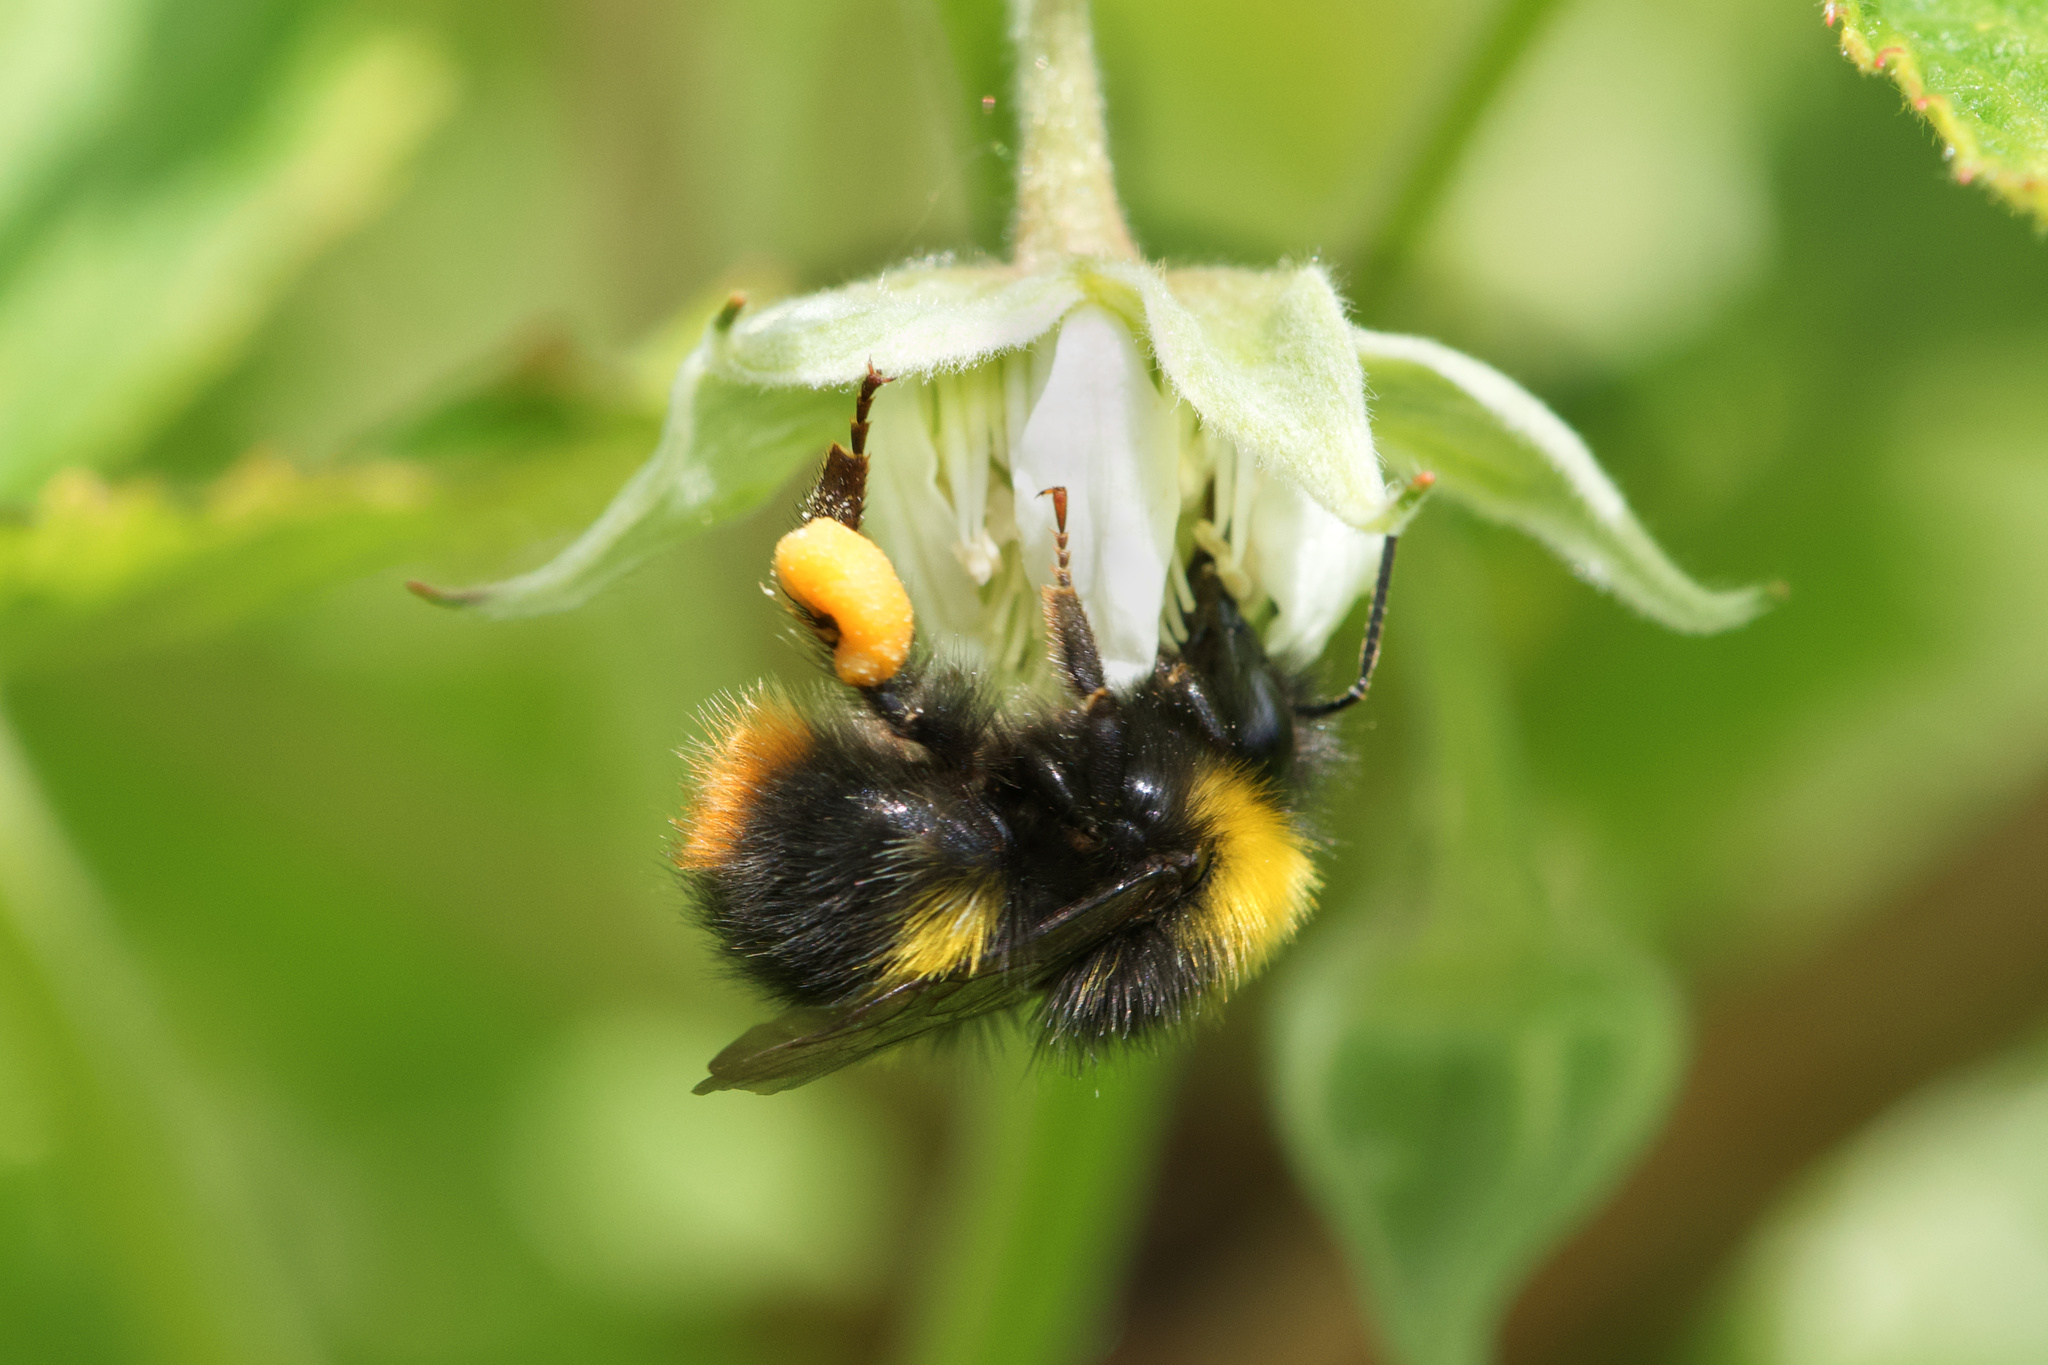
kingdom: Animalia
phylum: Arthropoda
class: Insecta
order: Hymenoptera
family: Apidae
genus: Bombus
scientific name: Bombus pratorum
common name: Early humble-bee
